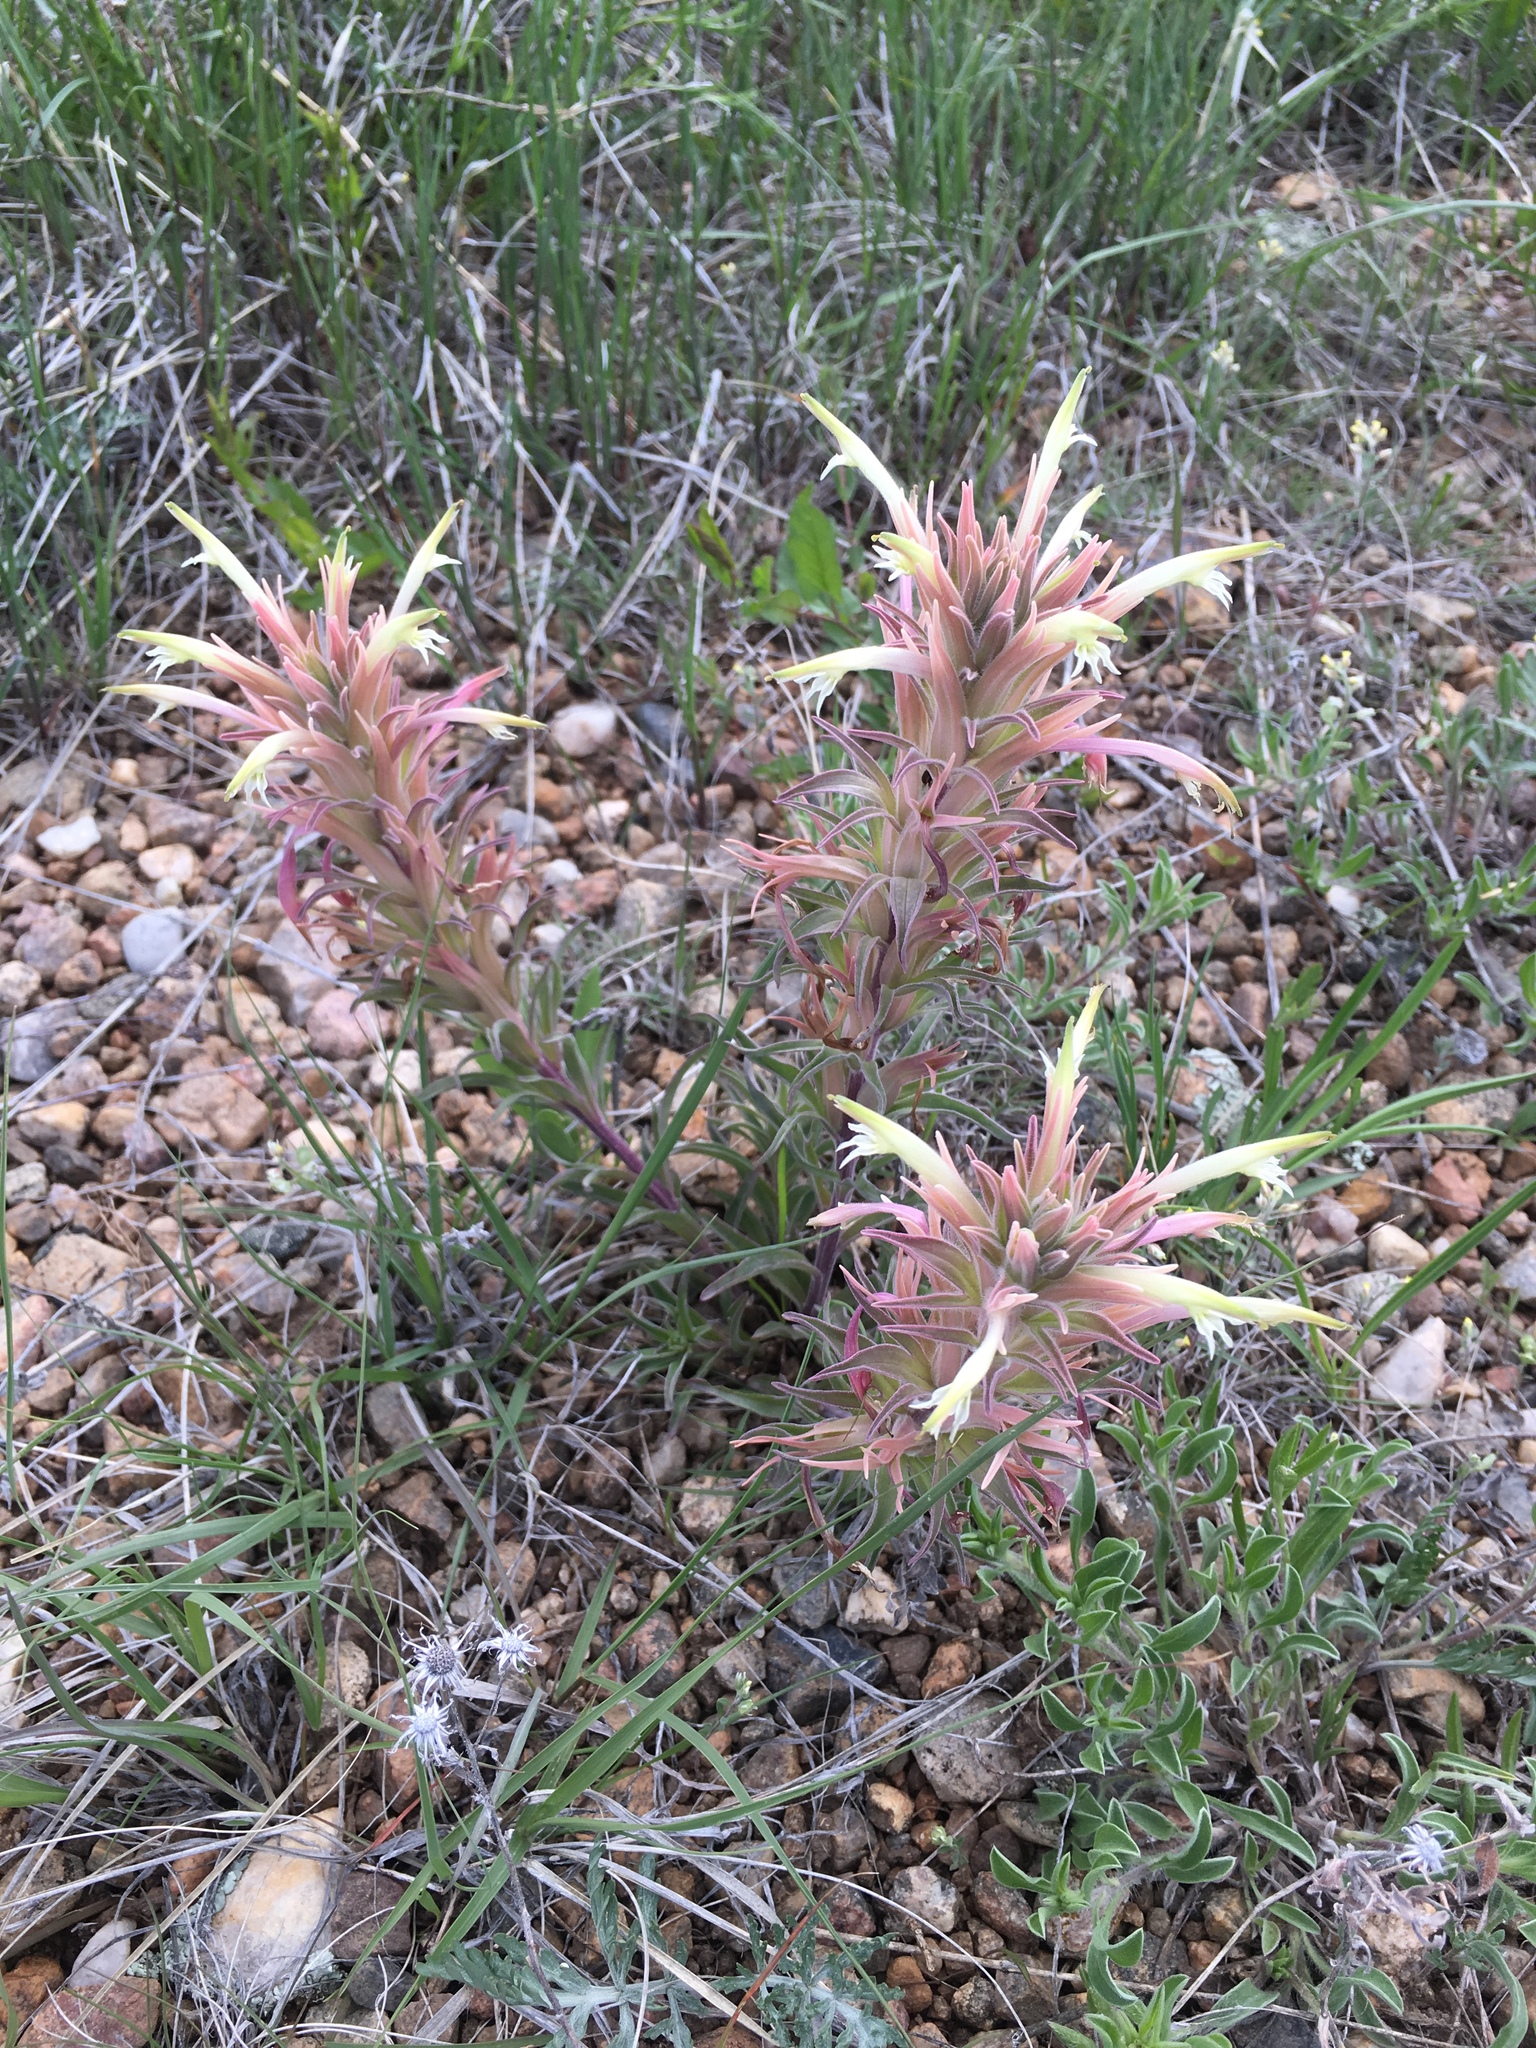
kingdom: Plantae
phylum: Tracheophyta
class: Magnoliopsida
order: Lamiales
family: Orobanchaceae
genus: Castilleja
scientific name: Castilleja sessiliflora
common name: Downy paintbrush
